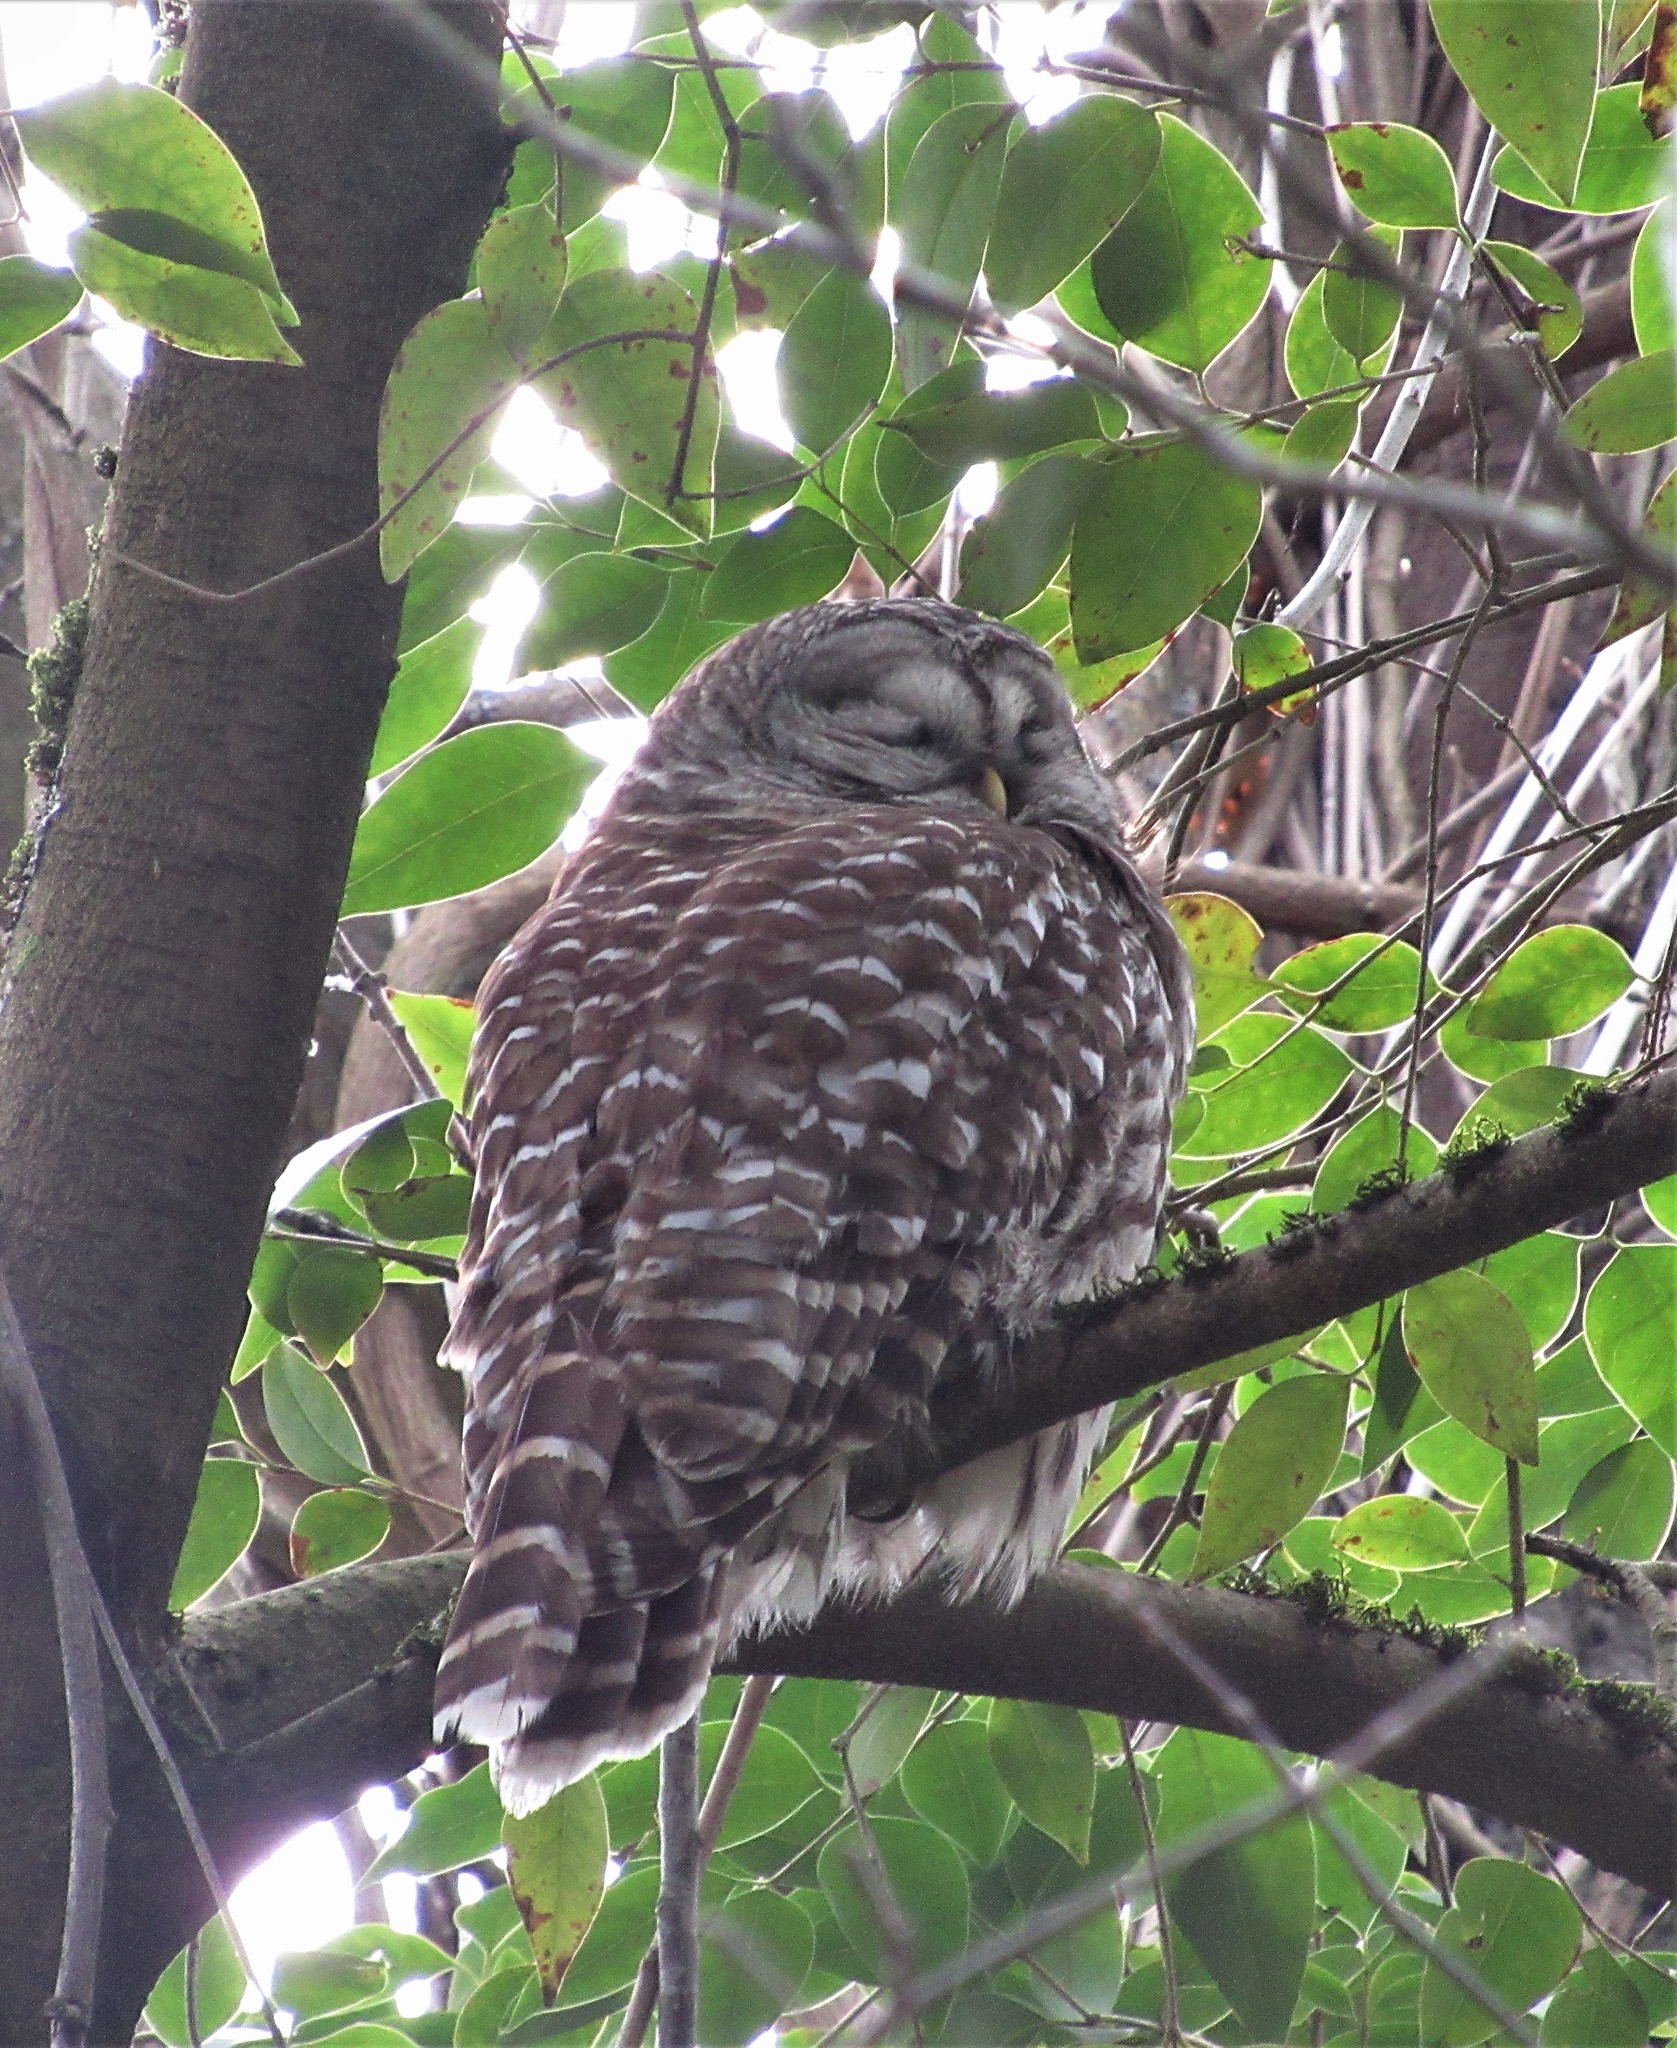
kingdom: Animalia
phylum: Chordata
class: Aves
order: Strigiformes
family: Strigidae
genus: Strix
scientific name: Strix varia
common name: Barred owl
